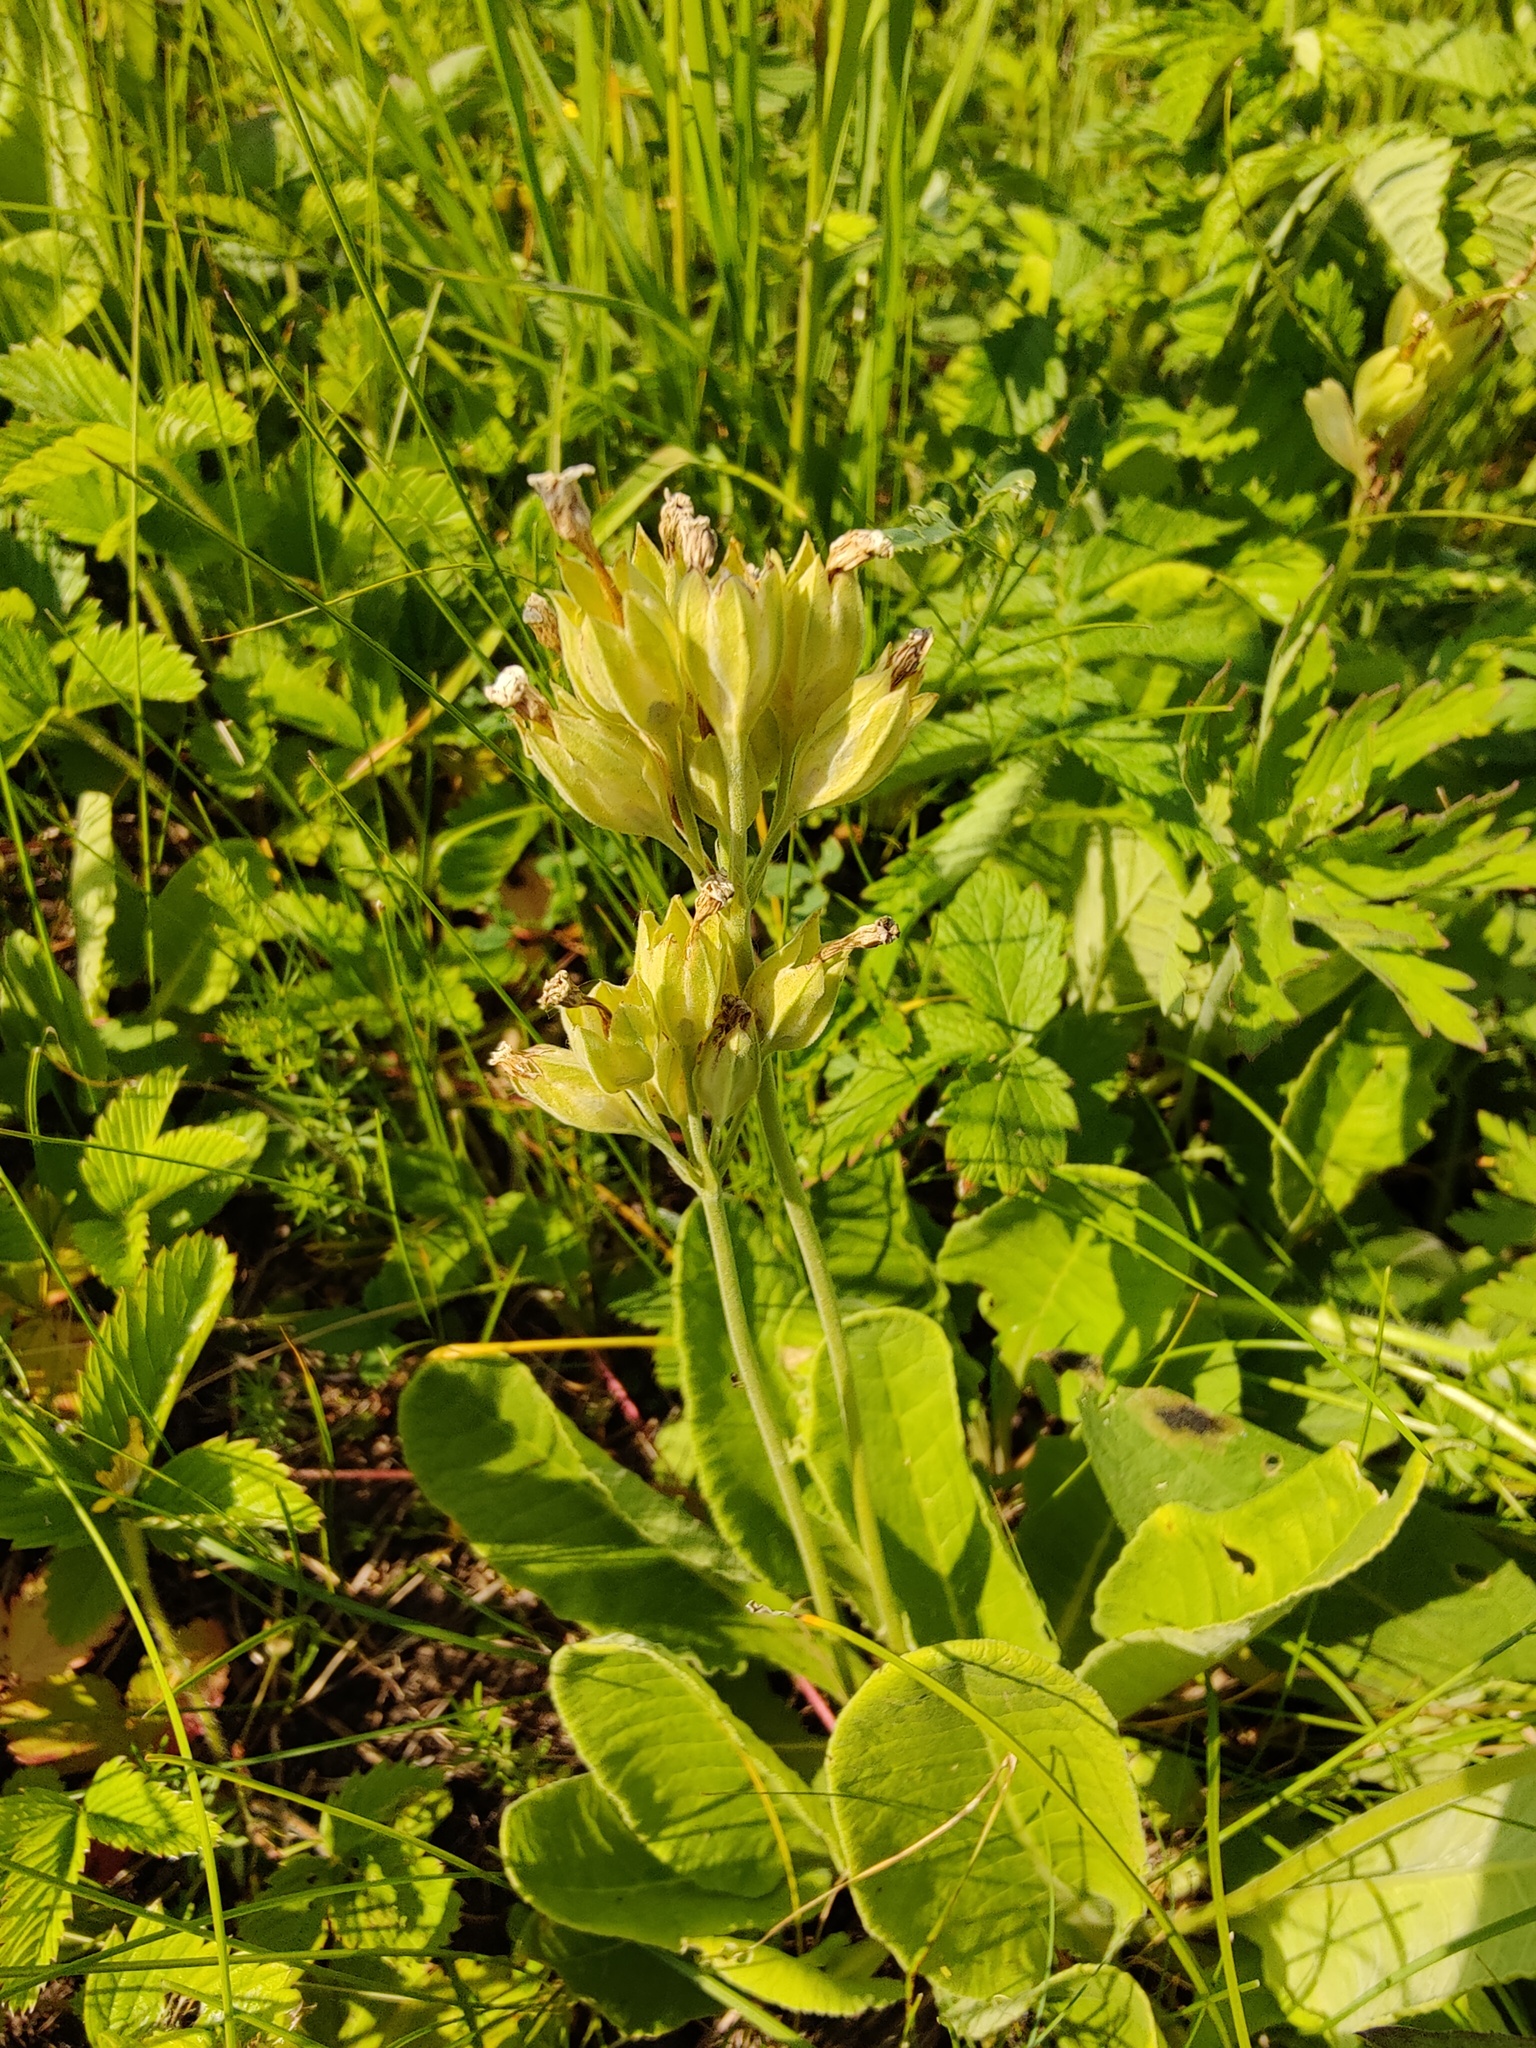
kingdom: Plantae
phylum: Tracheophyta
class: Magnoliopsida
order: Ericales
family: Primulaceae
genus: Primula
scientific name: Primula veris
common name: Cowslip
